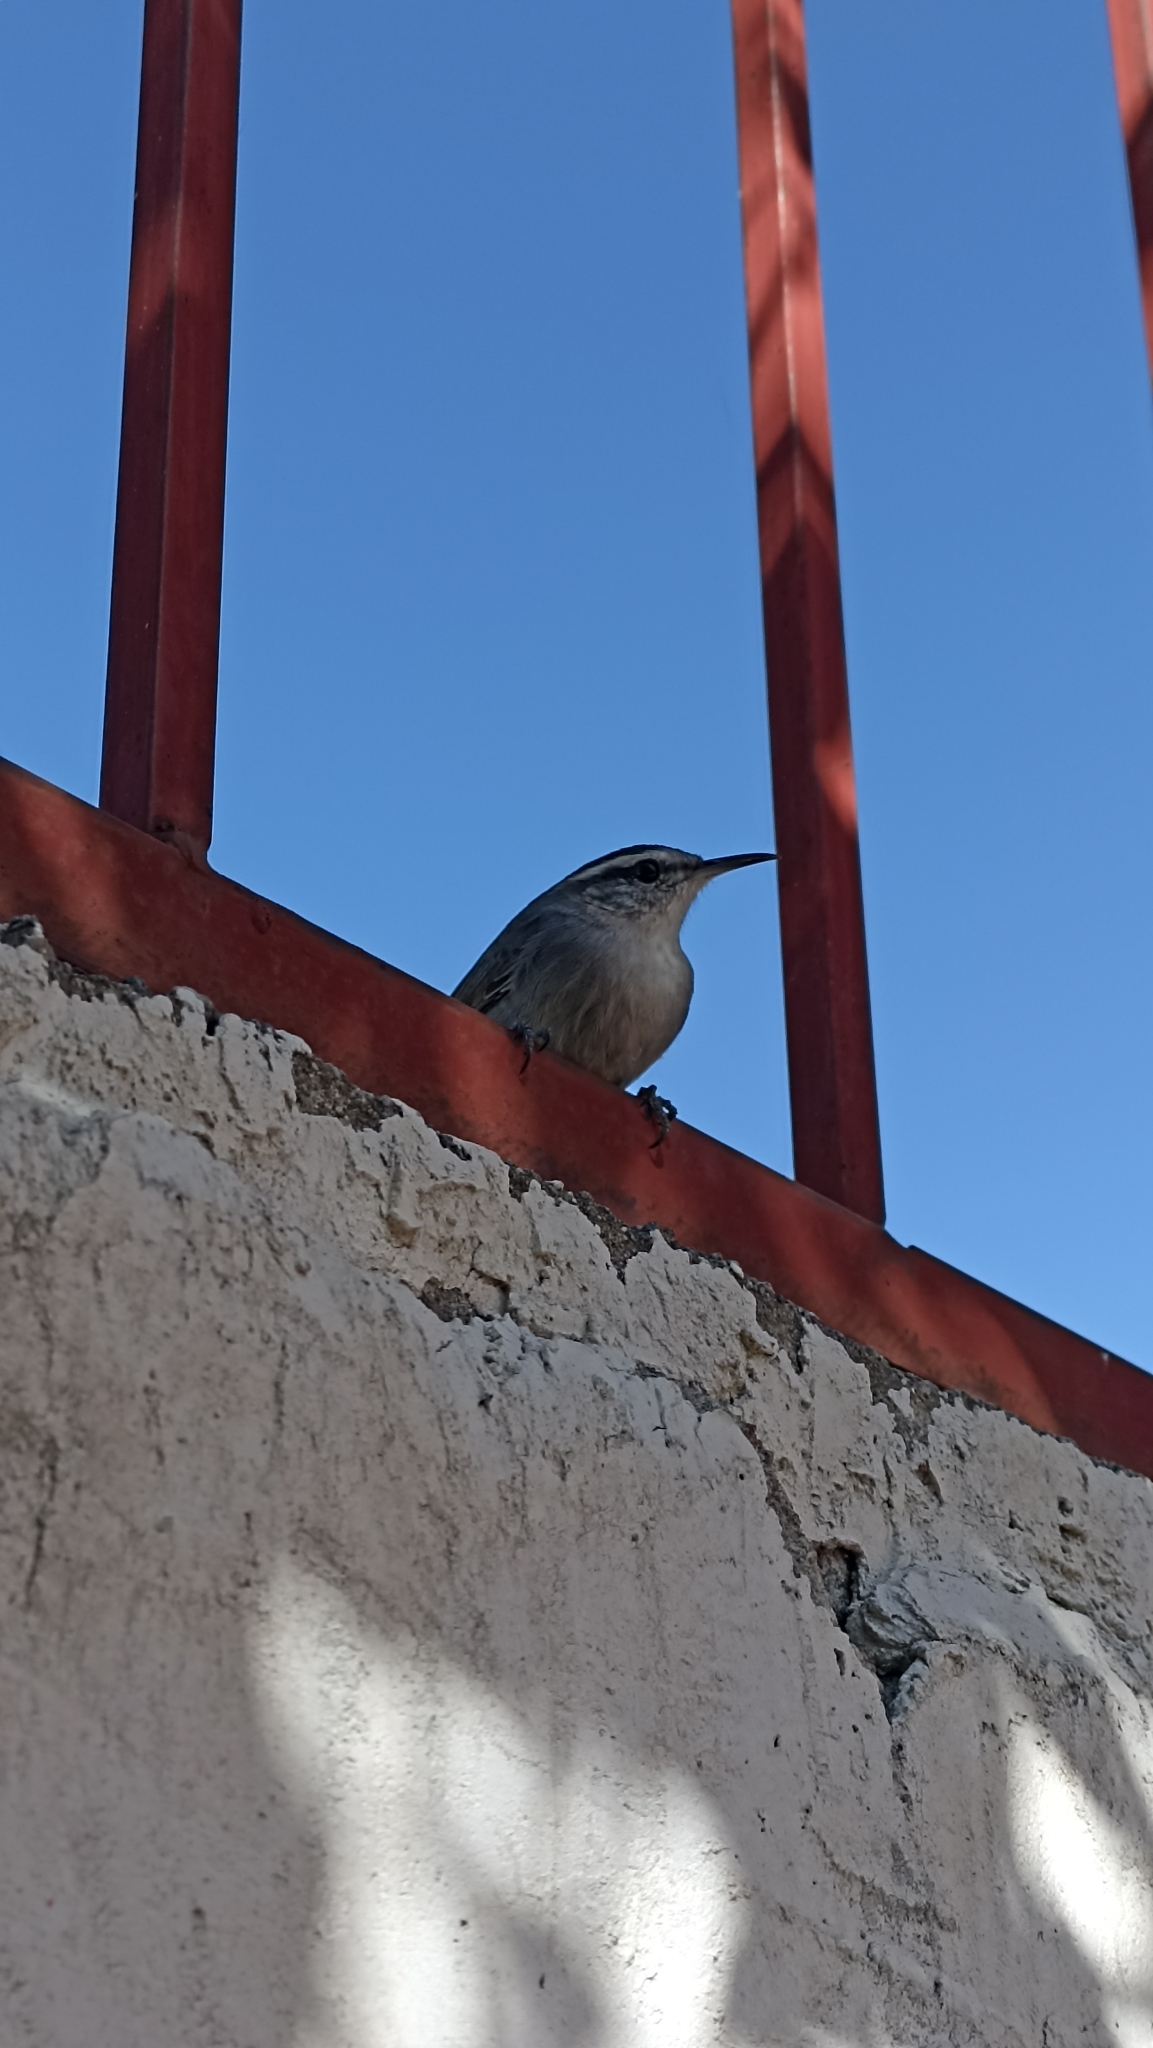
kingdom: Animalia
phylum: Chordata
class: Aves
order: Passeriformes
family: Troglodytidae
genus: Thryomanes
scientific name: Thryomanes bewickii
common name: Bewick's wren
